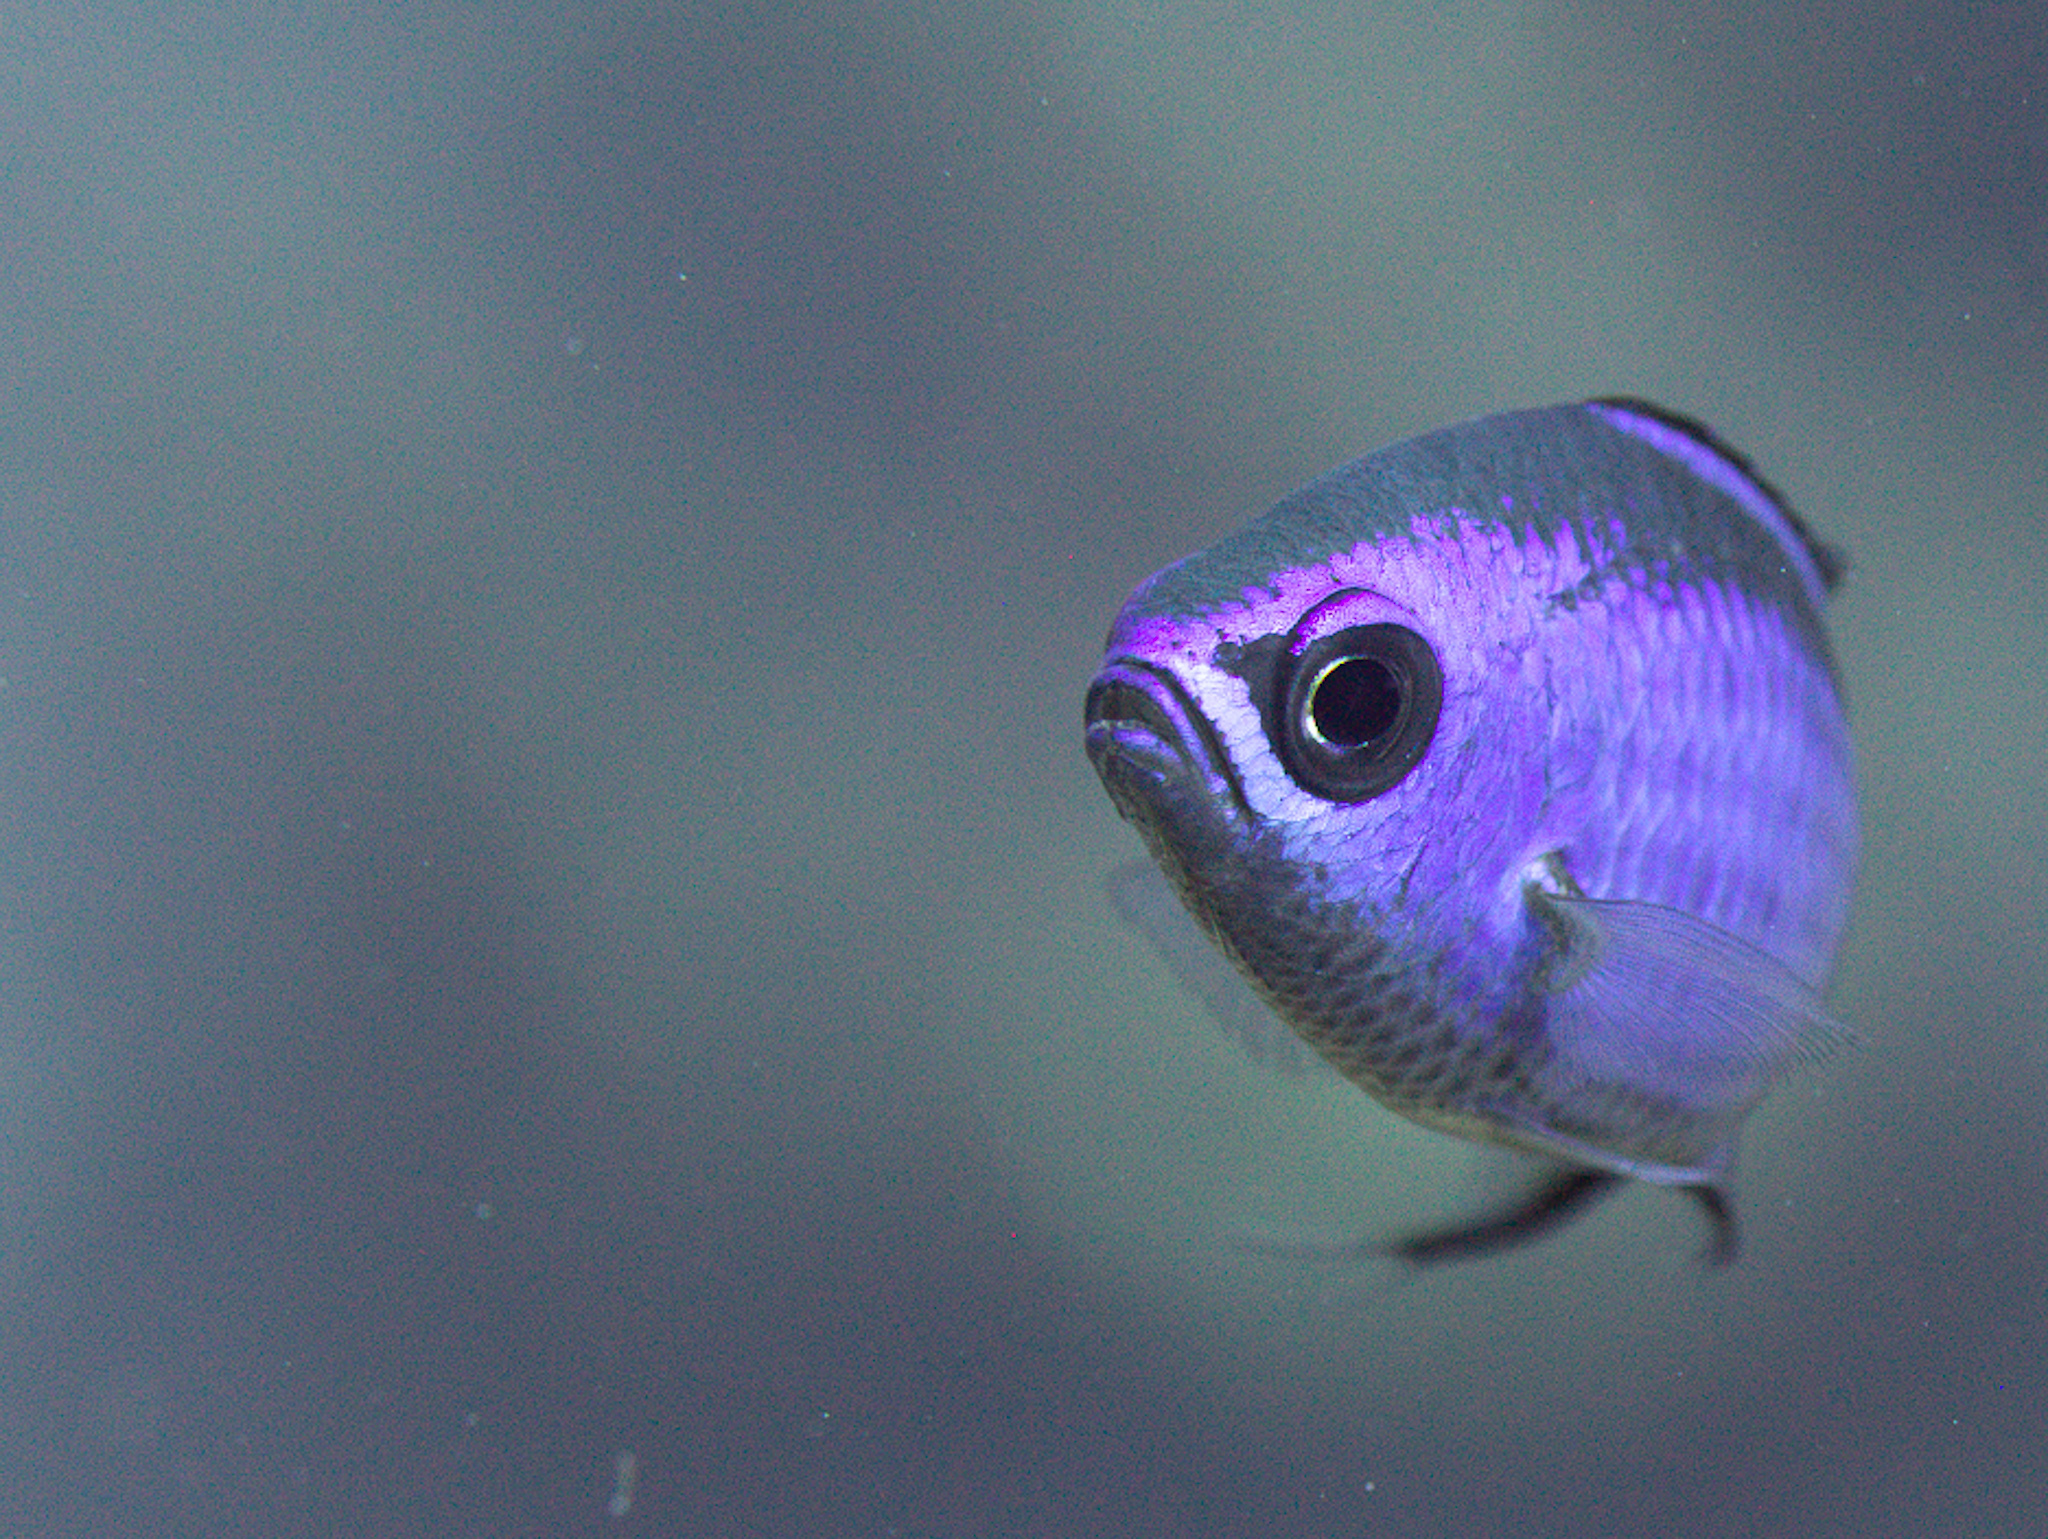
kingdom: Animalia
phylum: Chordata
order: Perciformes
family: Pomacentridae
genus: Chromis
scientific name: Chromis cyanea
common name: Blue chromis
